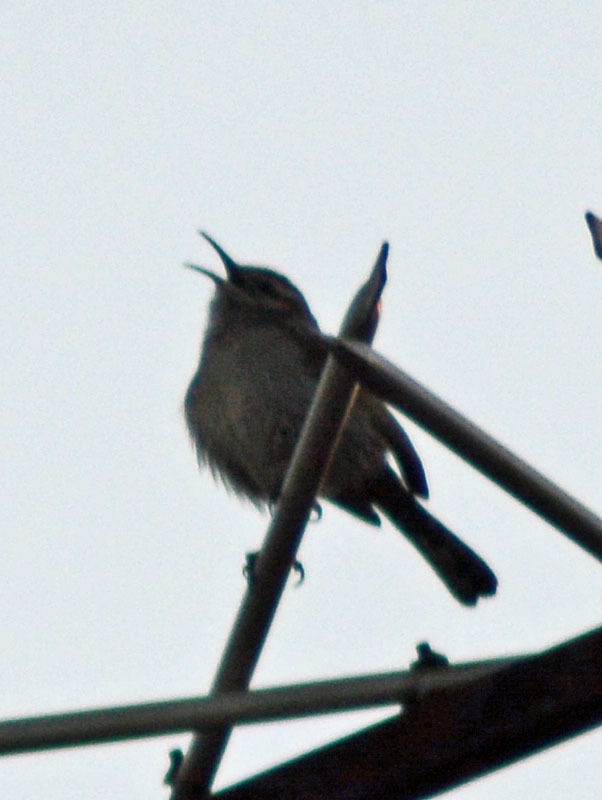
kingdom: Animalia
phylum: Chordata
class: Aves
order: Passeriformes
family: Troglodytidae
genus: Thryomanes
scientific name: Thryomanes bewickii
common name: Bewick's wren
